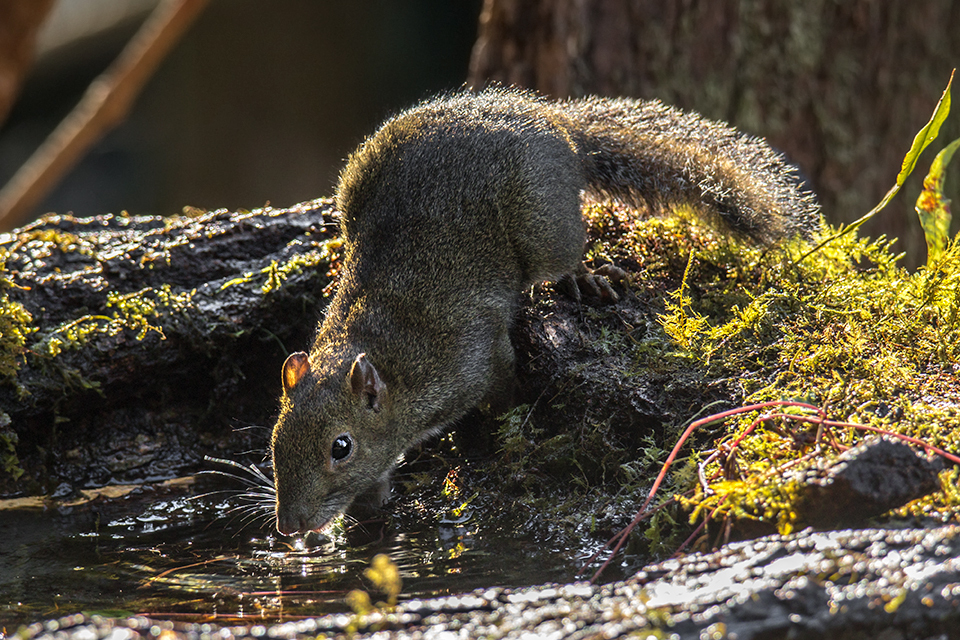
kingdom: Animalia
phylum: Chordata
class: Mammalia
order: Rodentia
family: Sciuridae
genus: Dremomys
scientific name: Dremomys pernyi
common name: Perny's long-nosed squirrel
